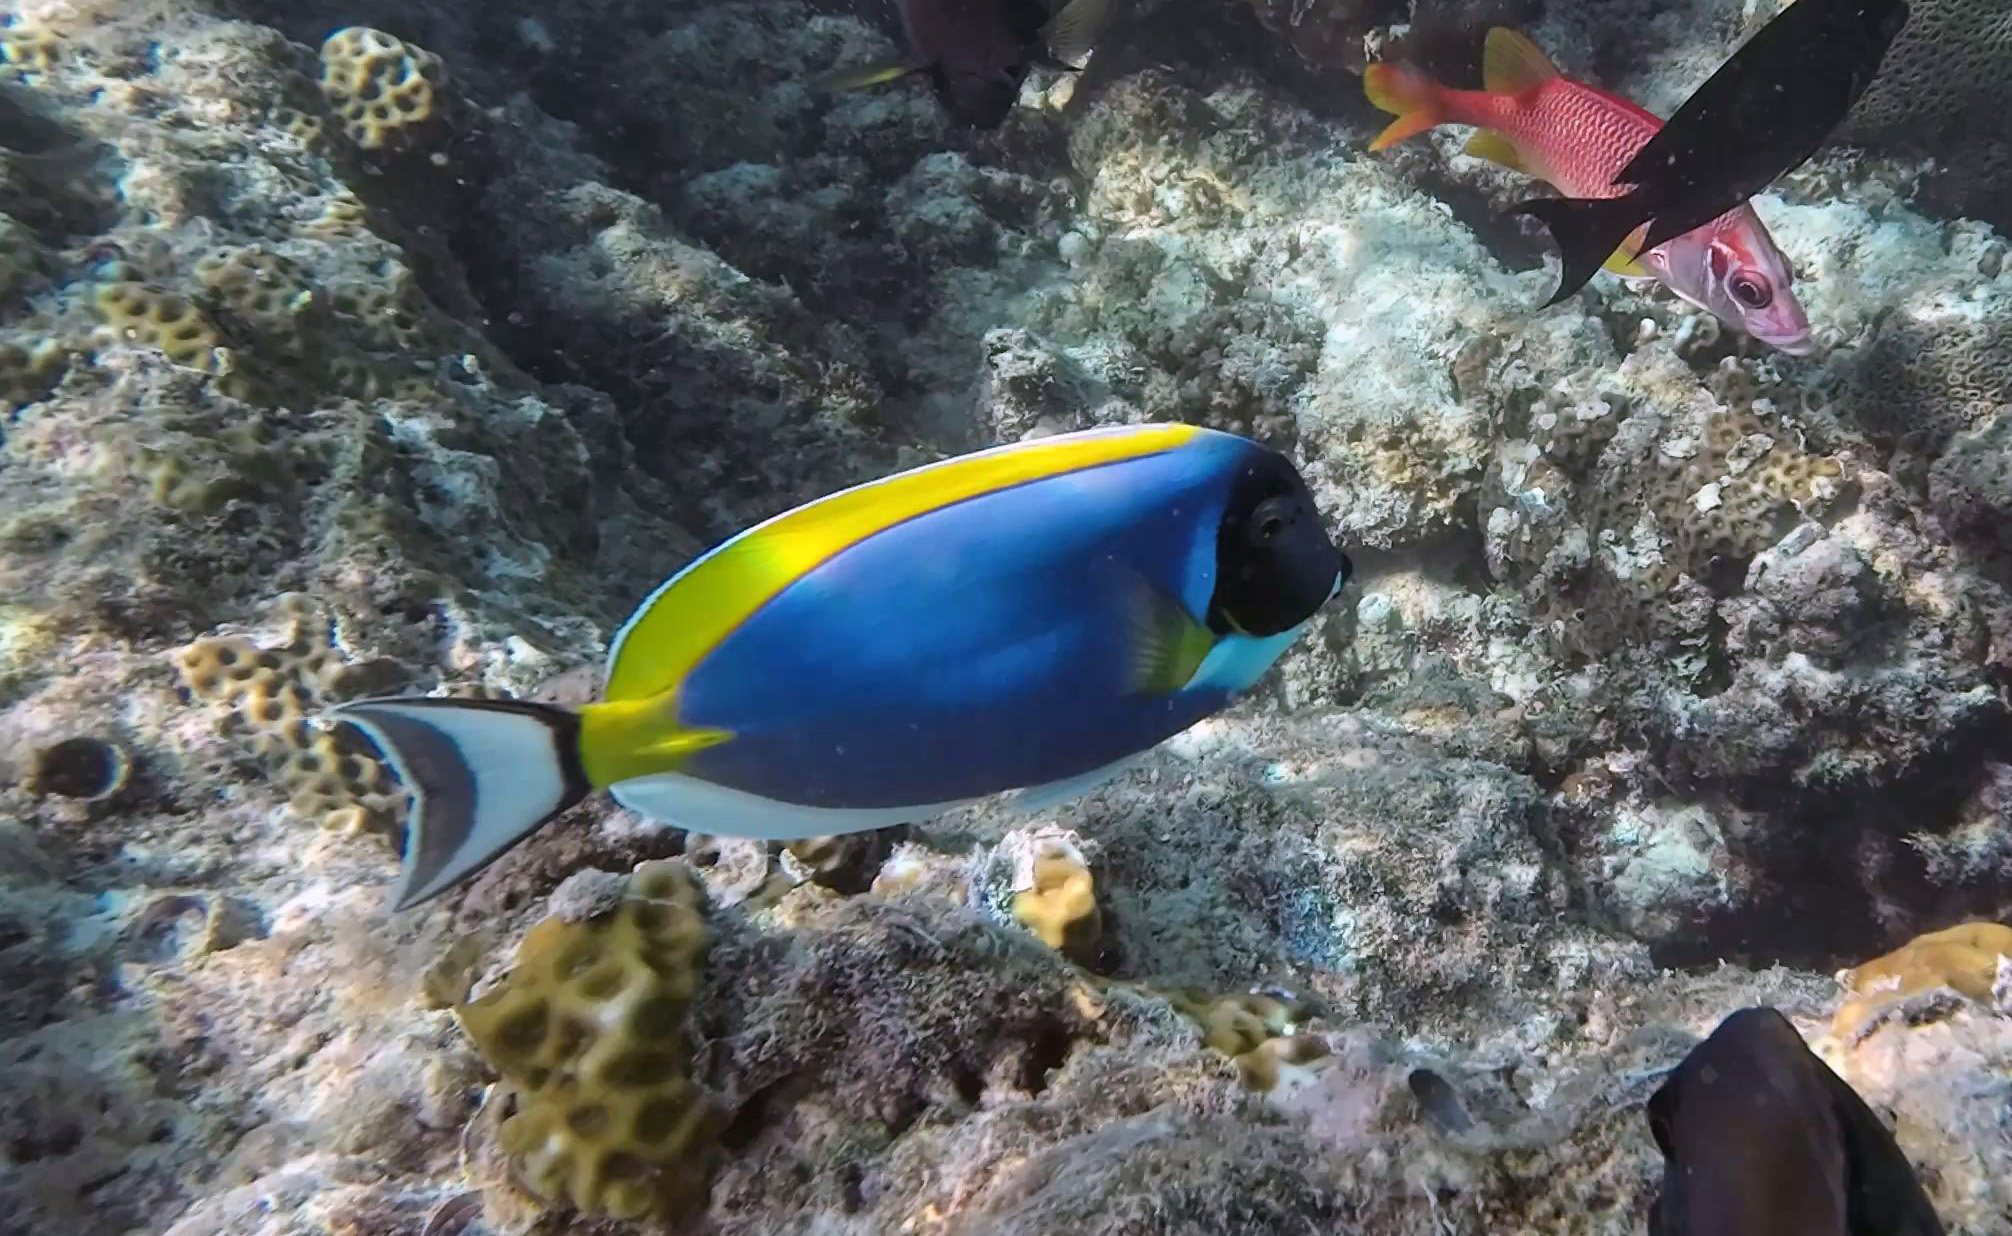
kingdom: Animalia
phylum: Chordata
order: Perciformes
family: Acanthuridae
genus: Acanthurus
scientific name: Acanthurus leucosternon
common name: Blue surgeonfish
